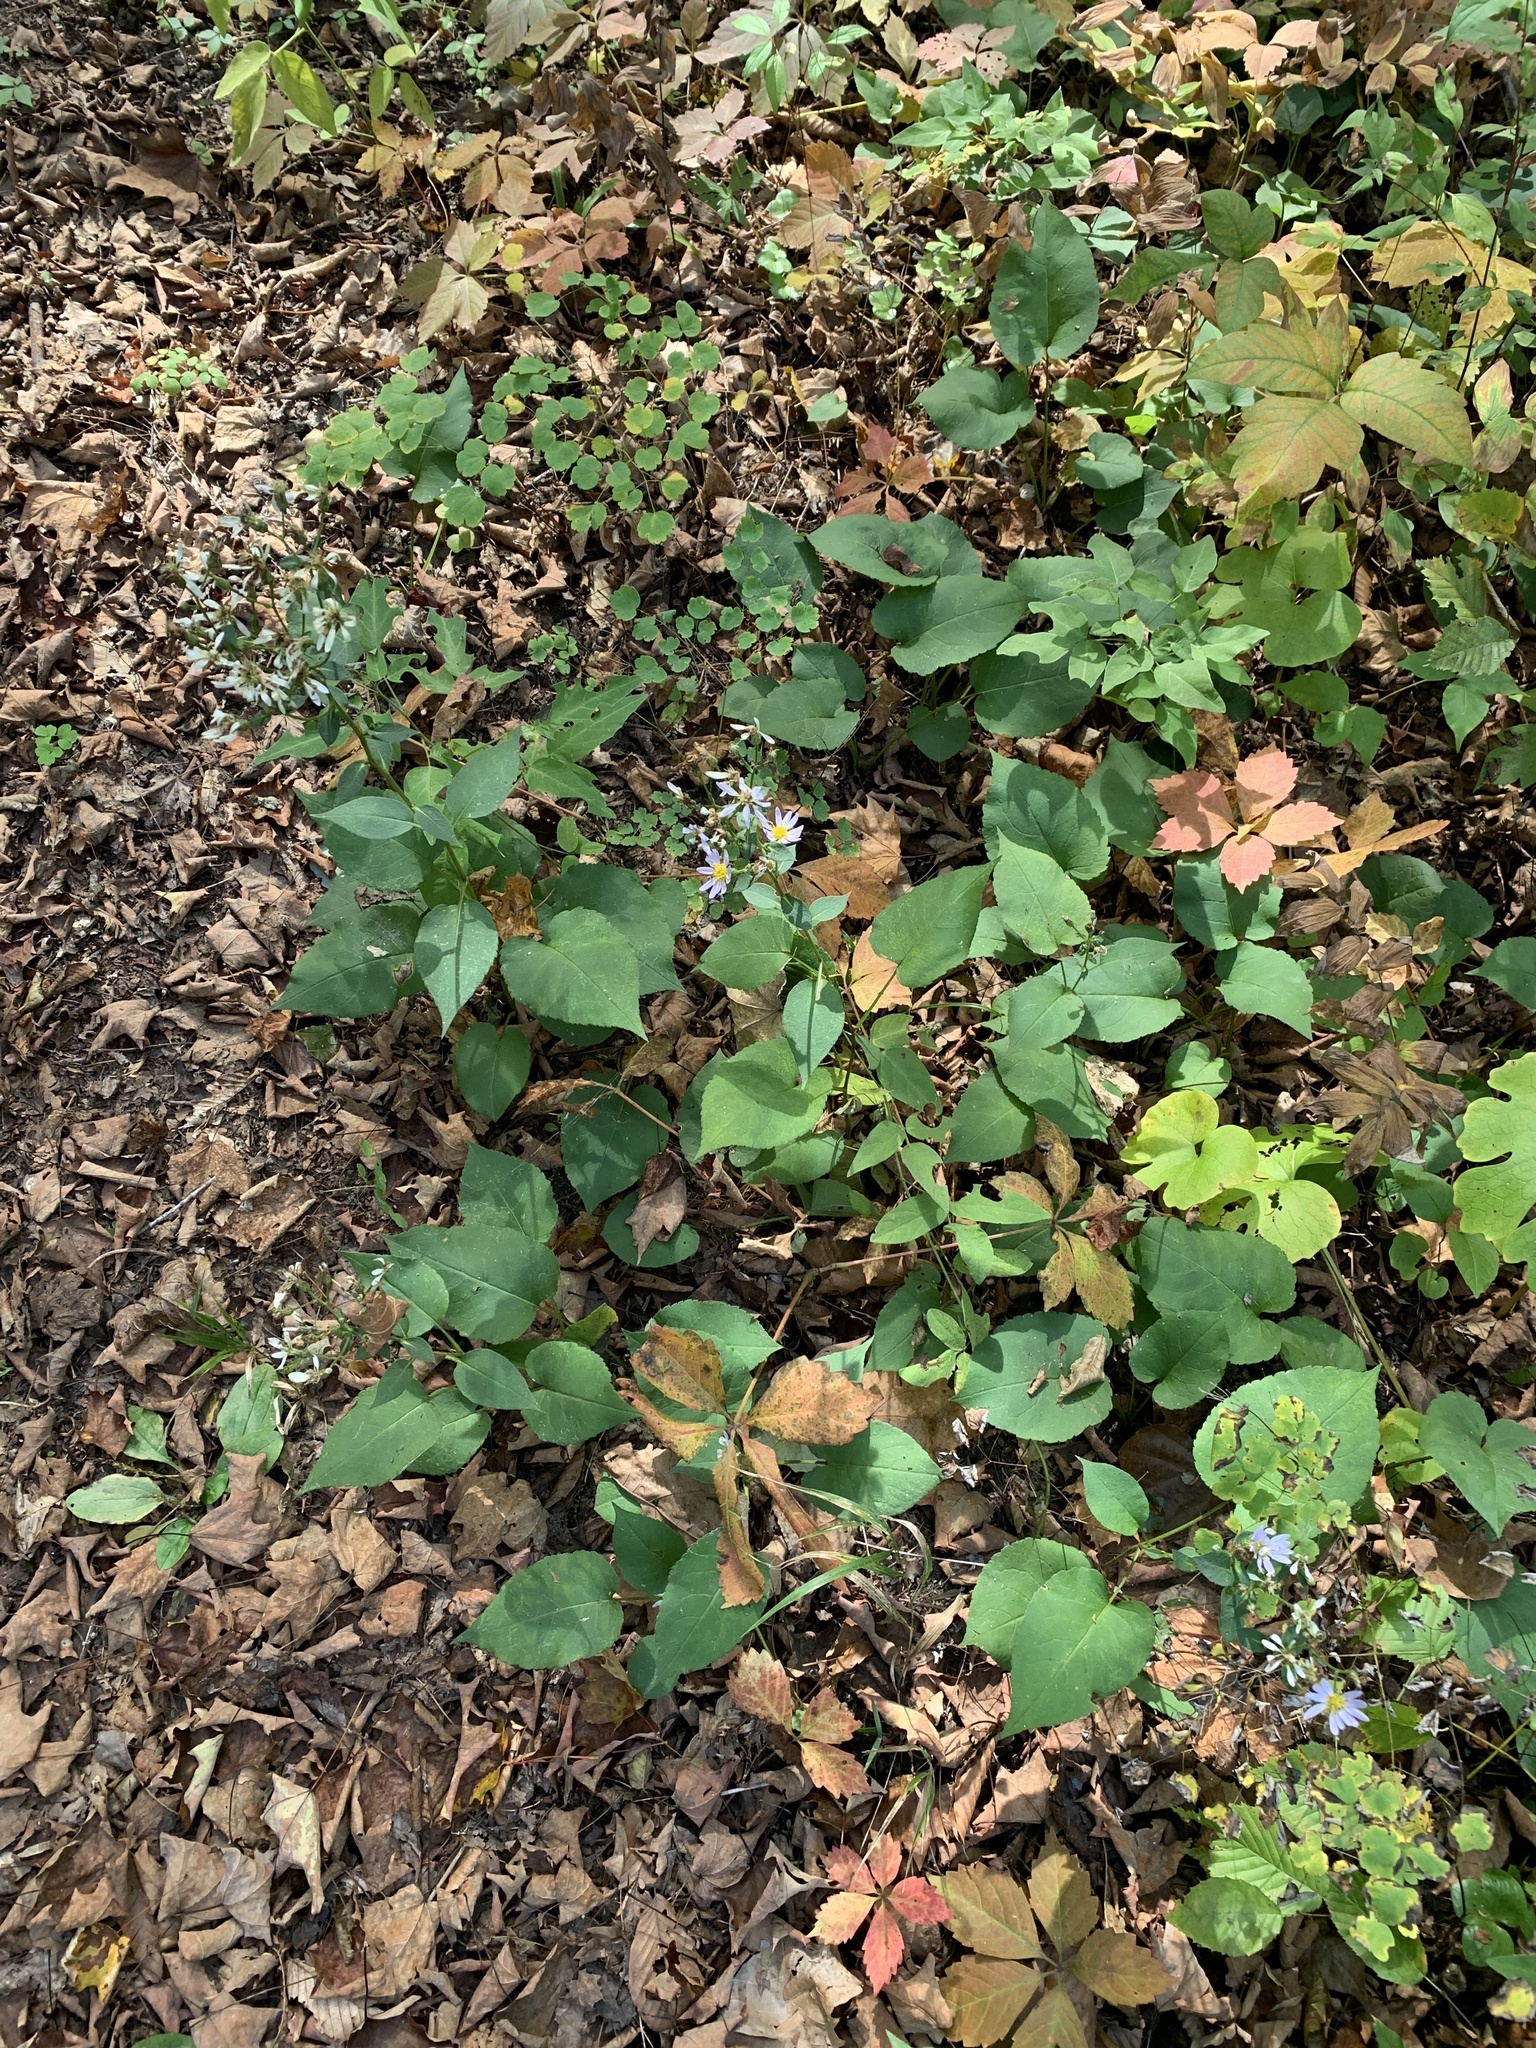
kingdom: Plantae
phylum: Tracheophyta
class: Magnoliopsida
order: Asterales
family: Asteraceae
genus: Eurybia
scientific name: Eurybia macrophylla
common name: Big-leaved aster
